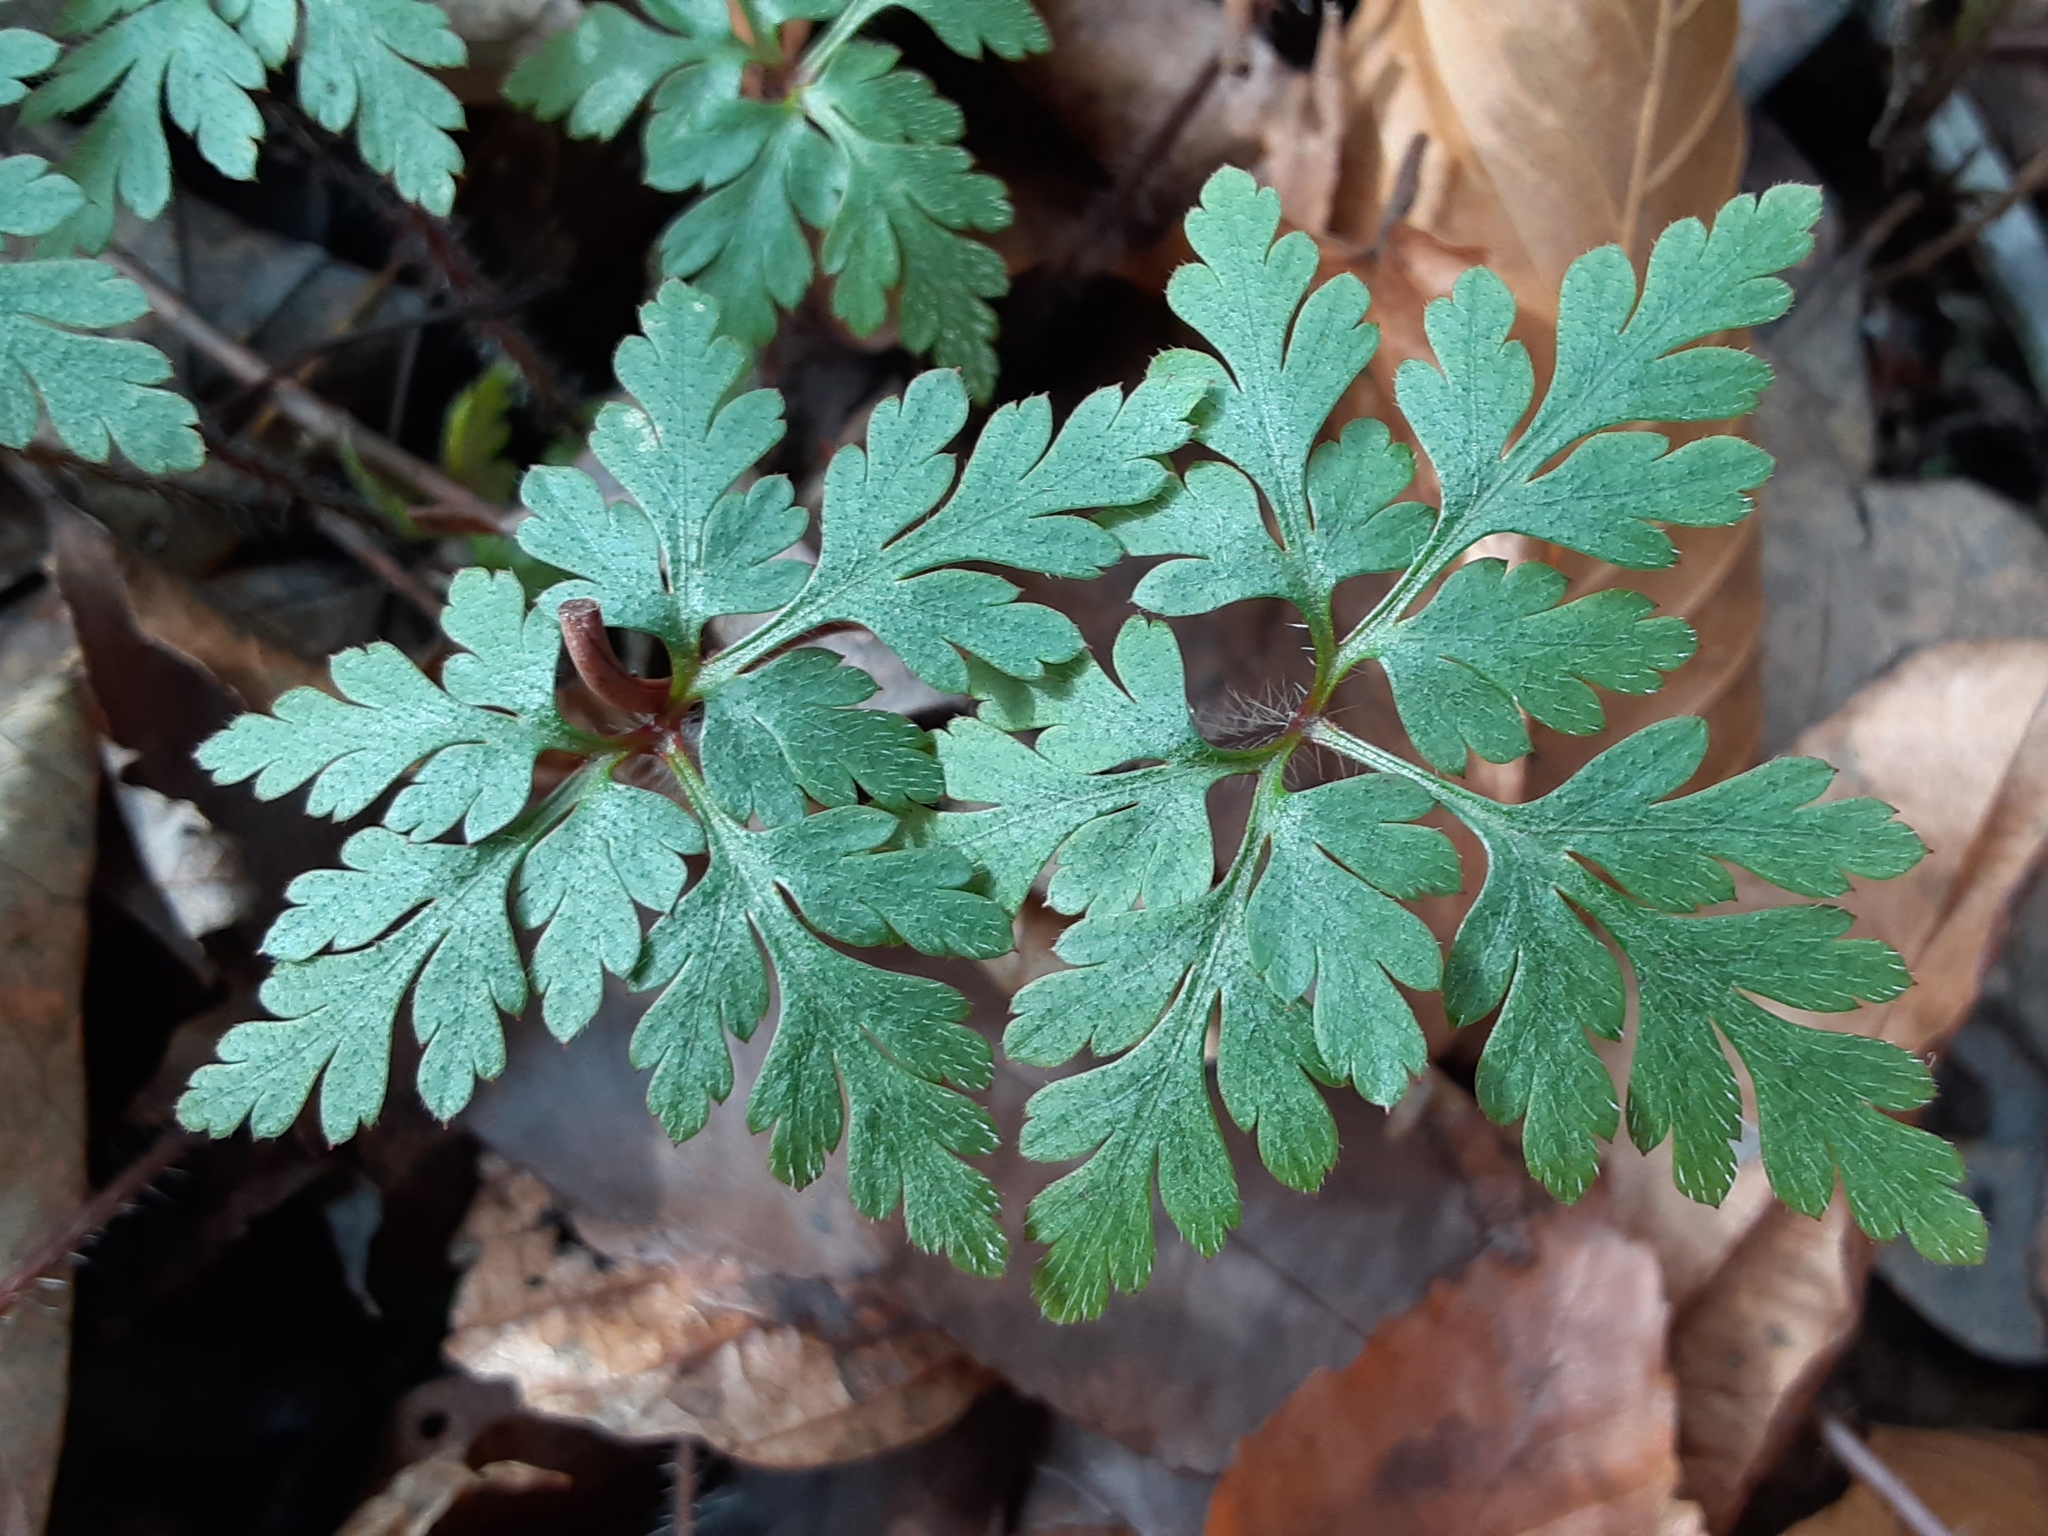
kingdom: Plantae
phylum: Tracheophyta
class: Magnoliopsida
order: Geraniales
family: Geraniaceae
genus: Geranium
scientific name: Geranium robertianum
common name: Herb-robert
